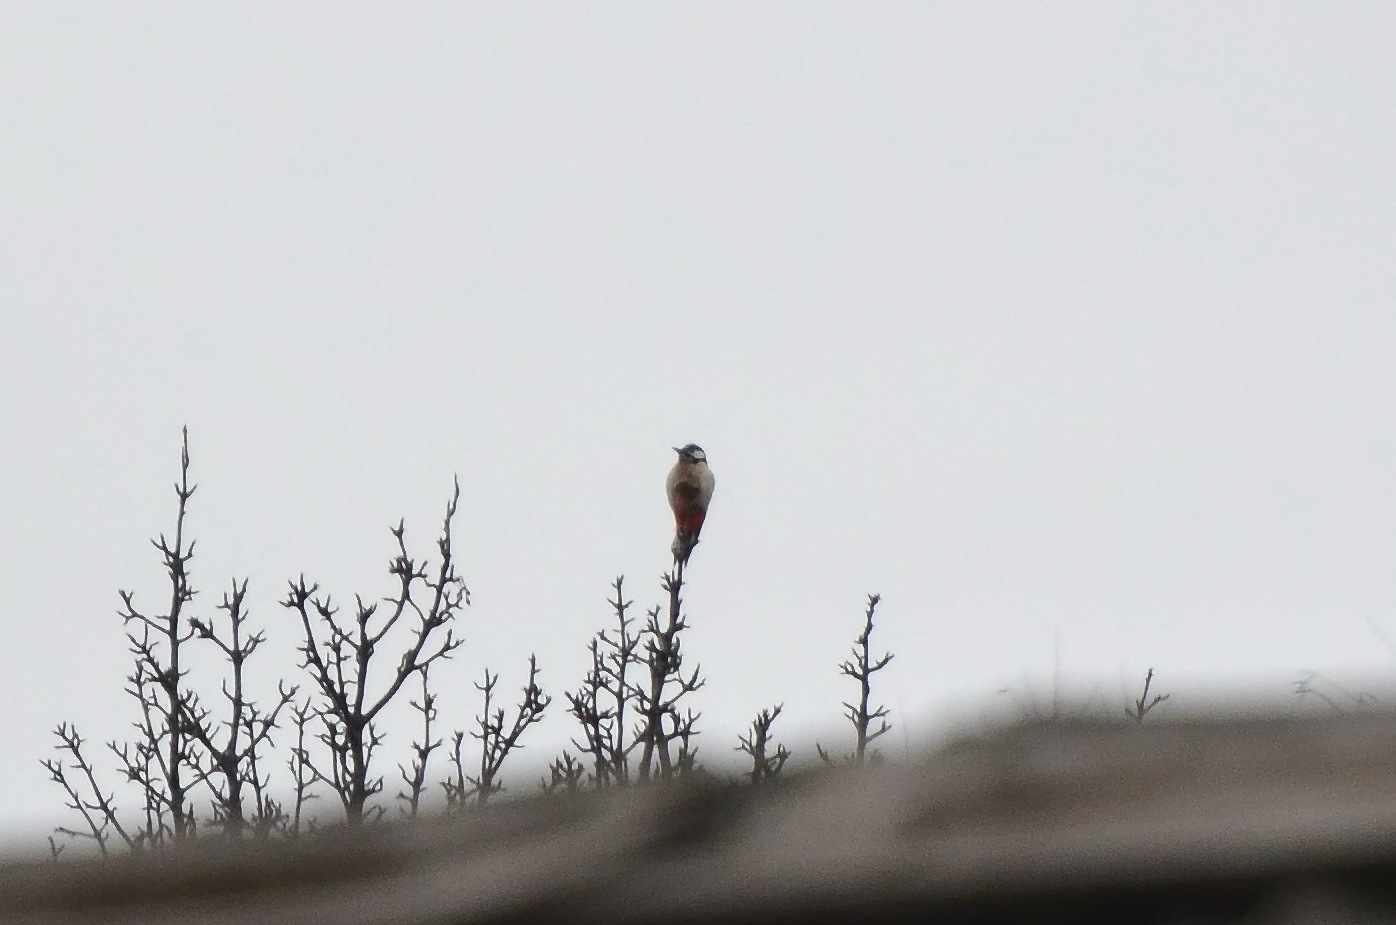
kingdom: Animalia
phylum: Chordata
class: Aves
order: Piciformes
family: Picidae
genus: Dendrocopos
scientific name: Dendrocopos major
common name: Great spotted woodpecker
